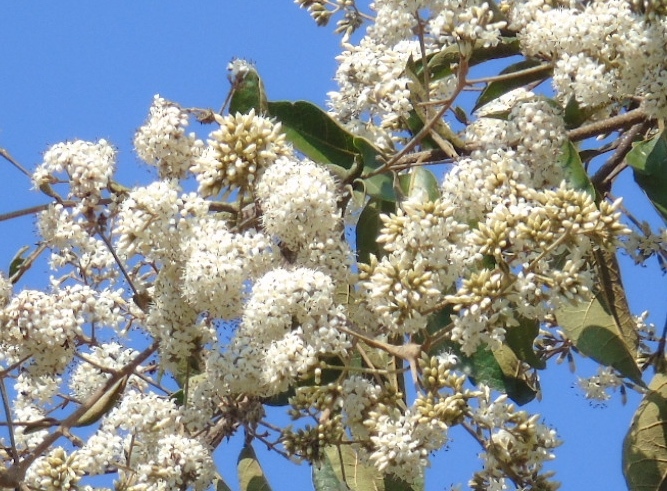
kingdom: Plantae
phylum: Tracheophyta
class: Magnoliopsida
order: Boraginales
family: Cordiaceae
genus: Cordia
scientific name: Cordia alliodora
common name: Spanish elm
